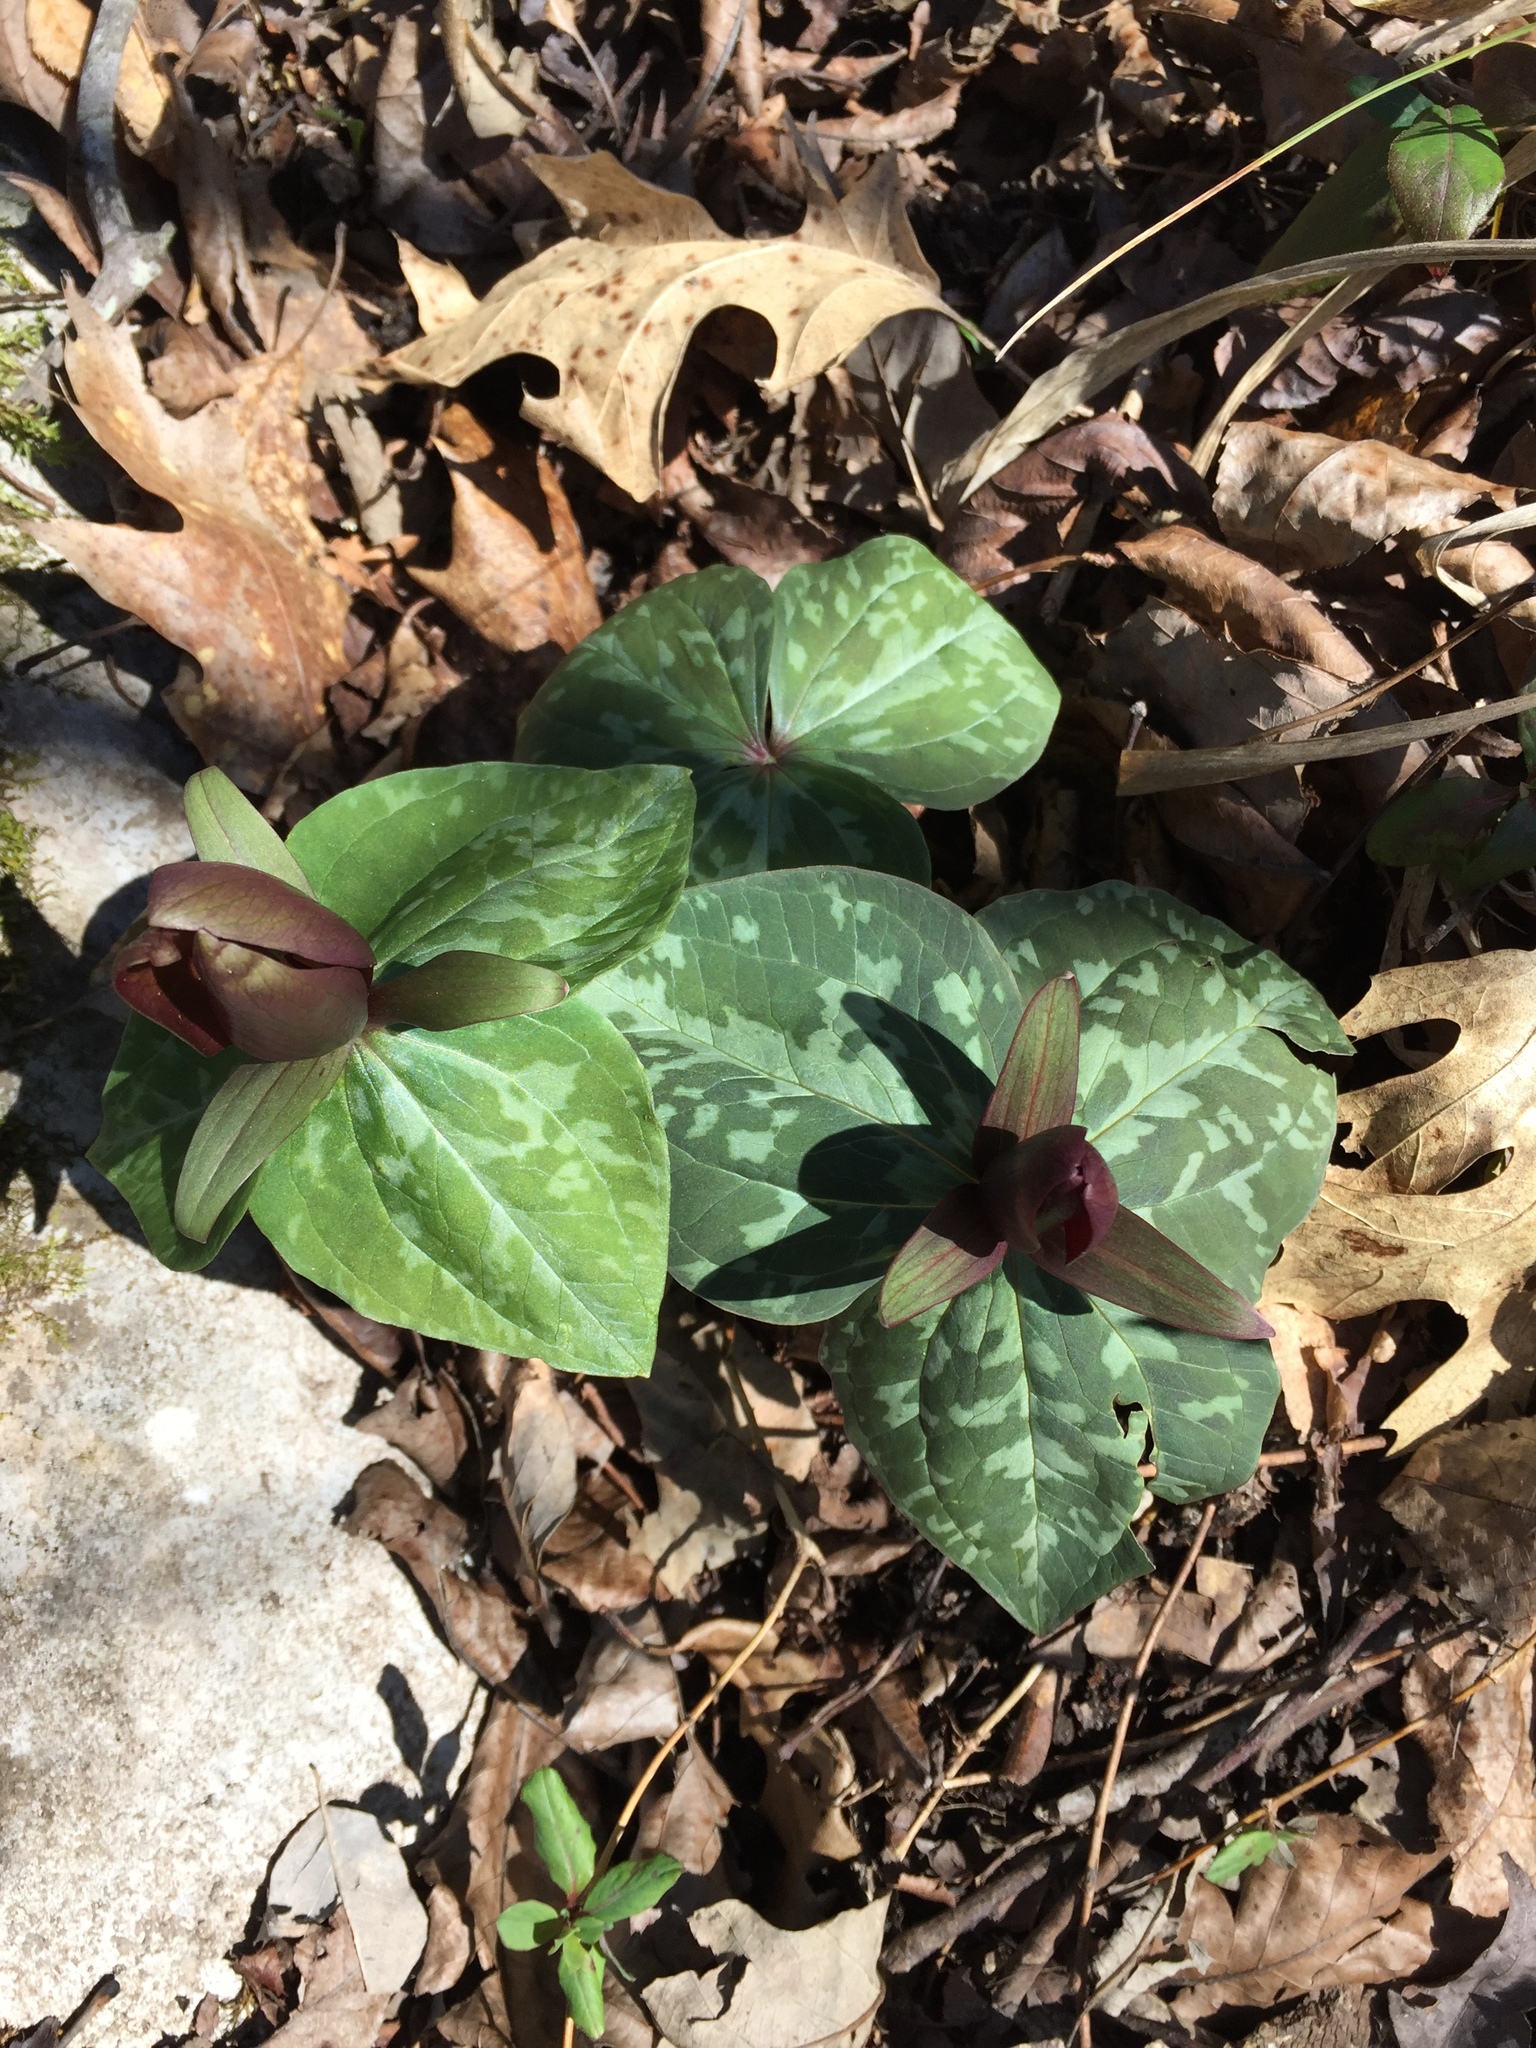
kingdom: Plantae
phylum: Tracheophyta
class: Liliopsida
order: Liliales
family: Melanthiaceae
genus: Trillium
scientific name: Trillium cuneatum
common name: Cuneate trillium
